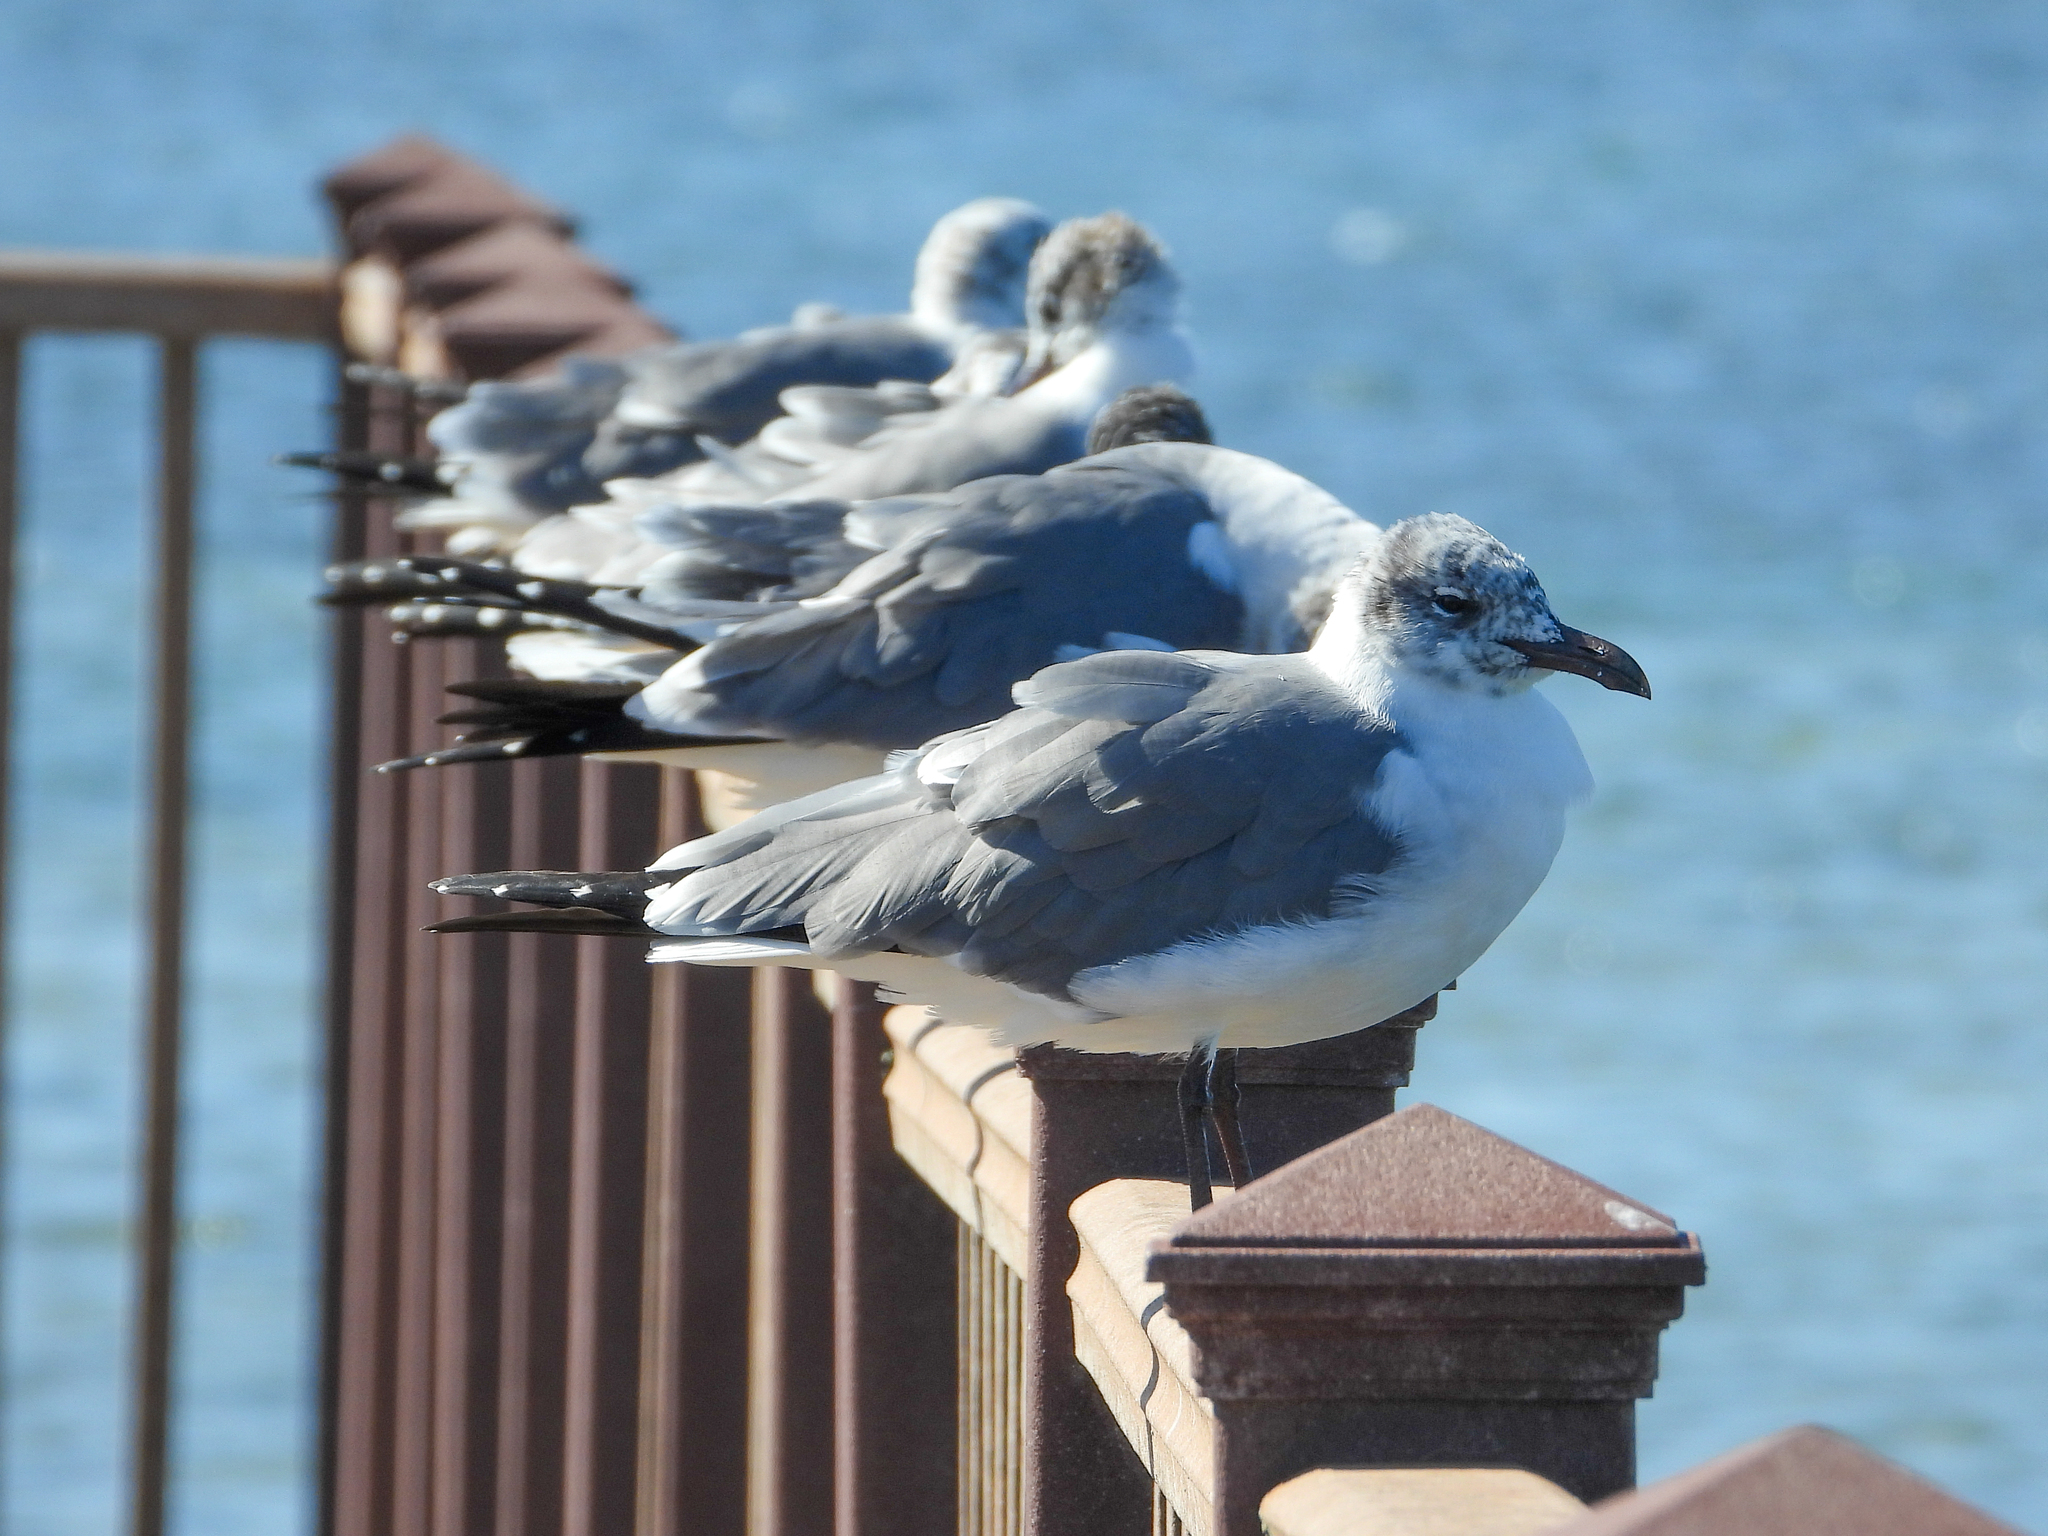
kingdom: Animalia
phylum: Chordata
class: Aves
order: Charadriiformes
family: Laridae
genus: Leucophaeus
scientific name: Leucophaeus atricilla
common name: Laughing gull
